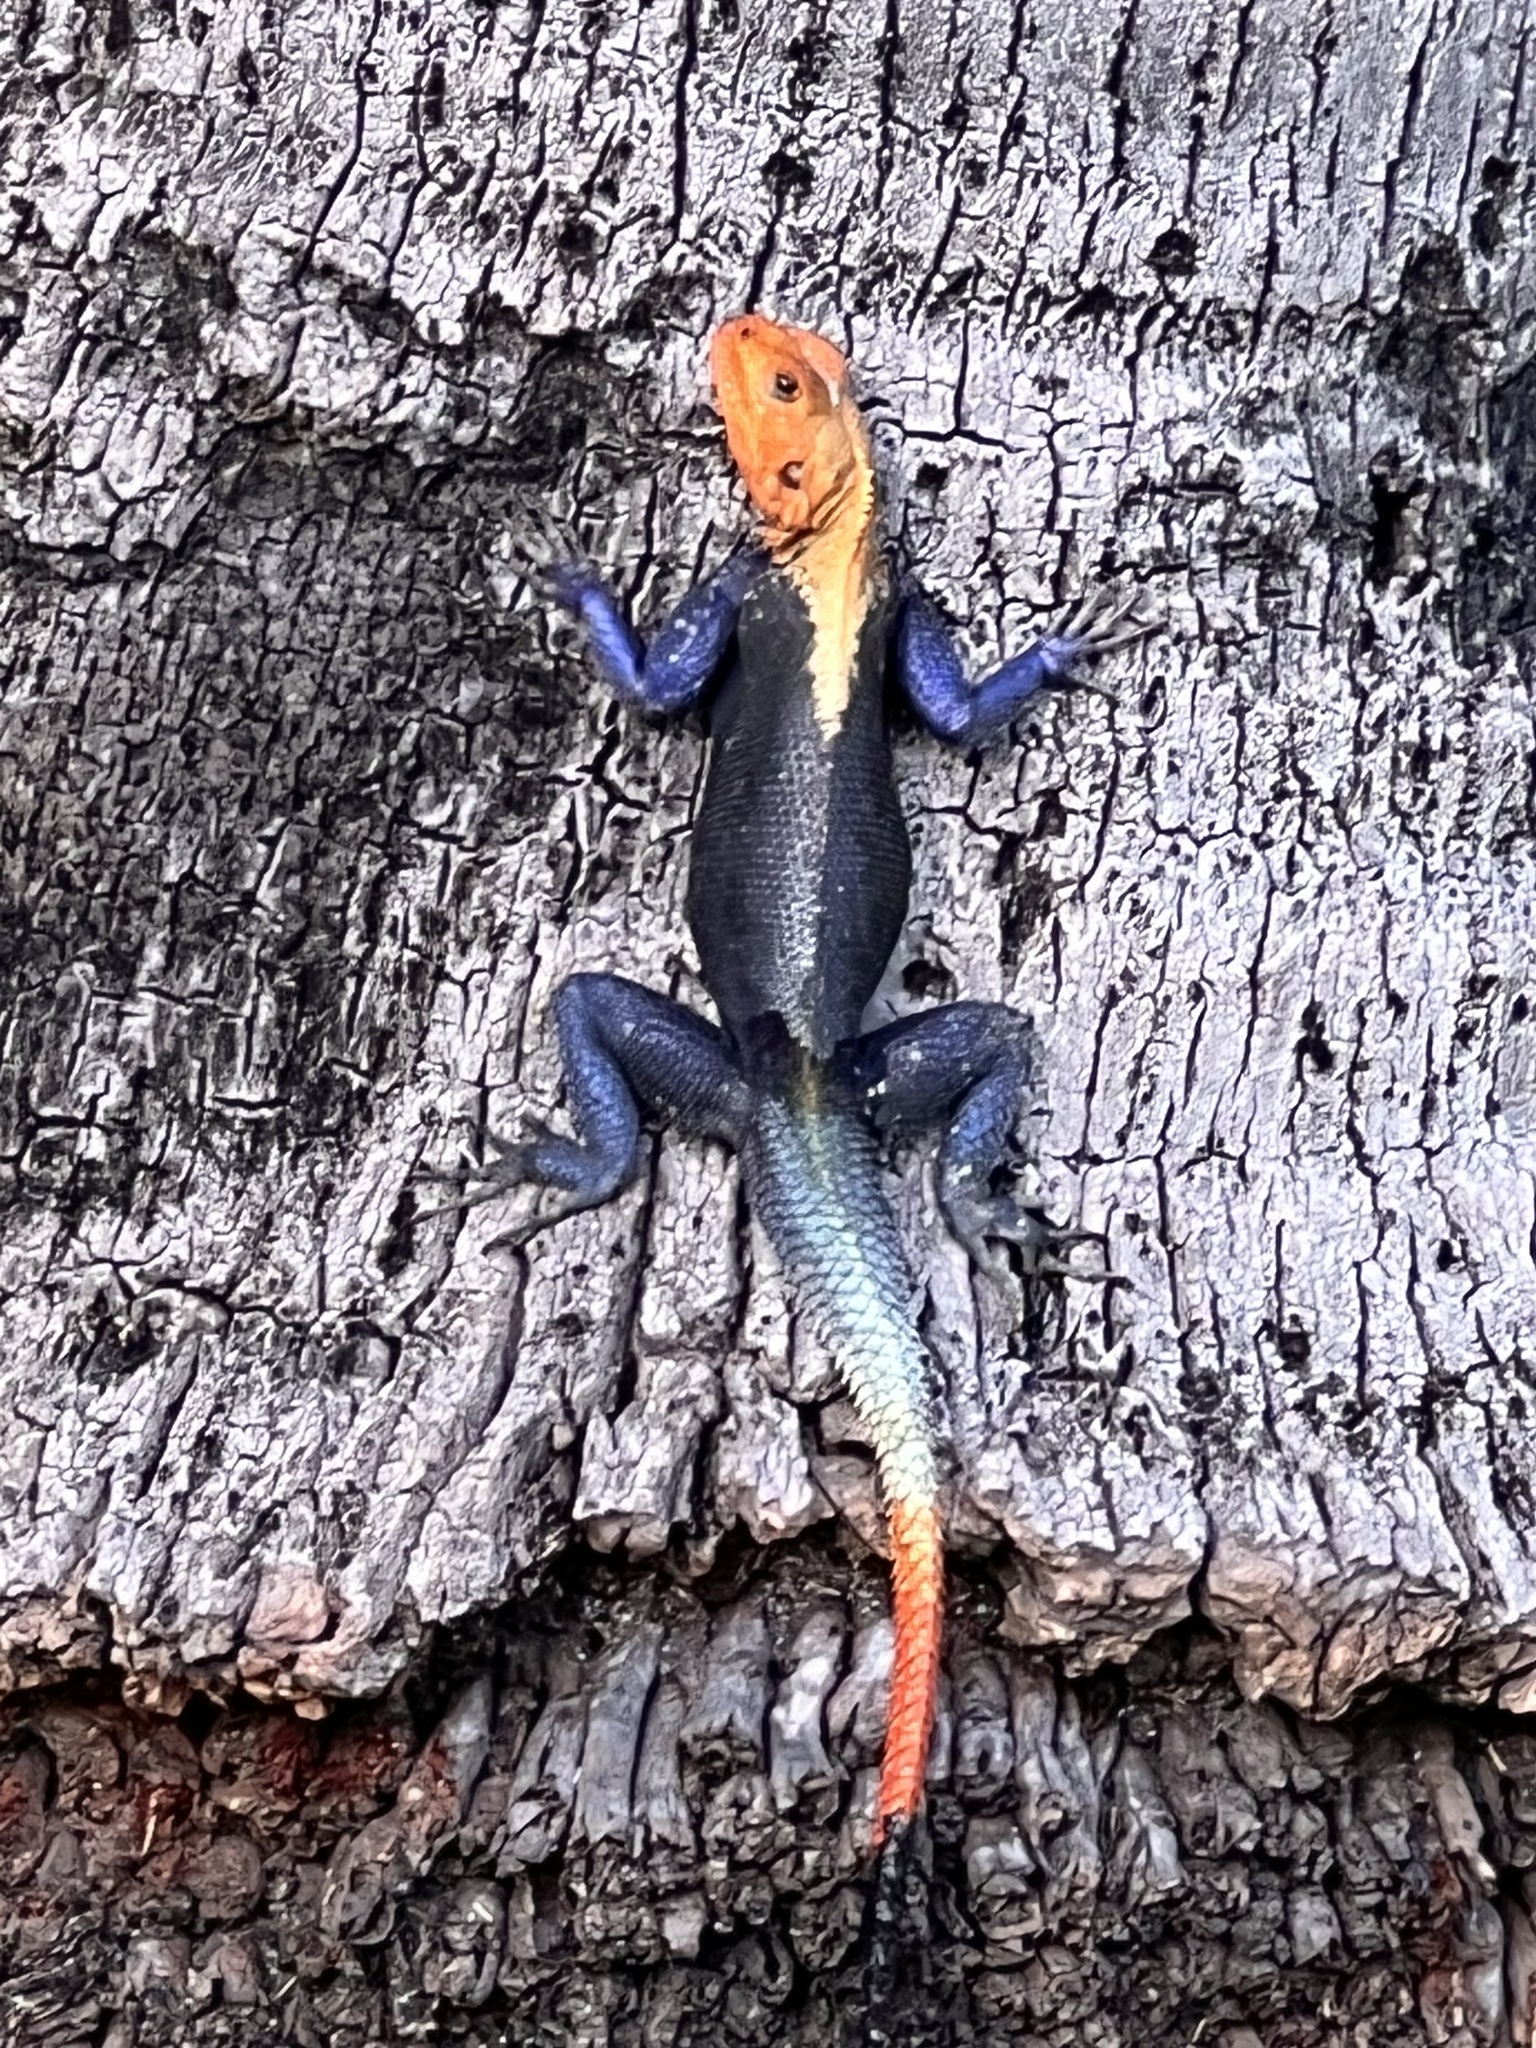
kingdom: Animalia
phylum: Chordata
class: Squamata
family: Agamidae
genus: Agama
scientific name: Agama picticauda
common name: Red-headed agama
